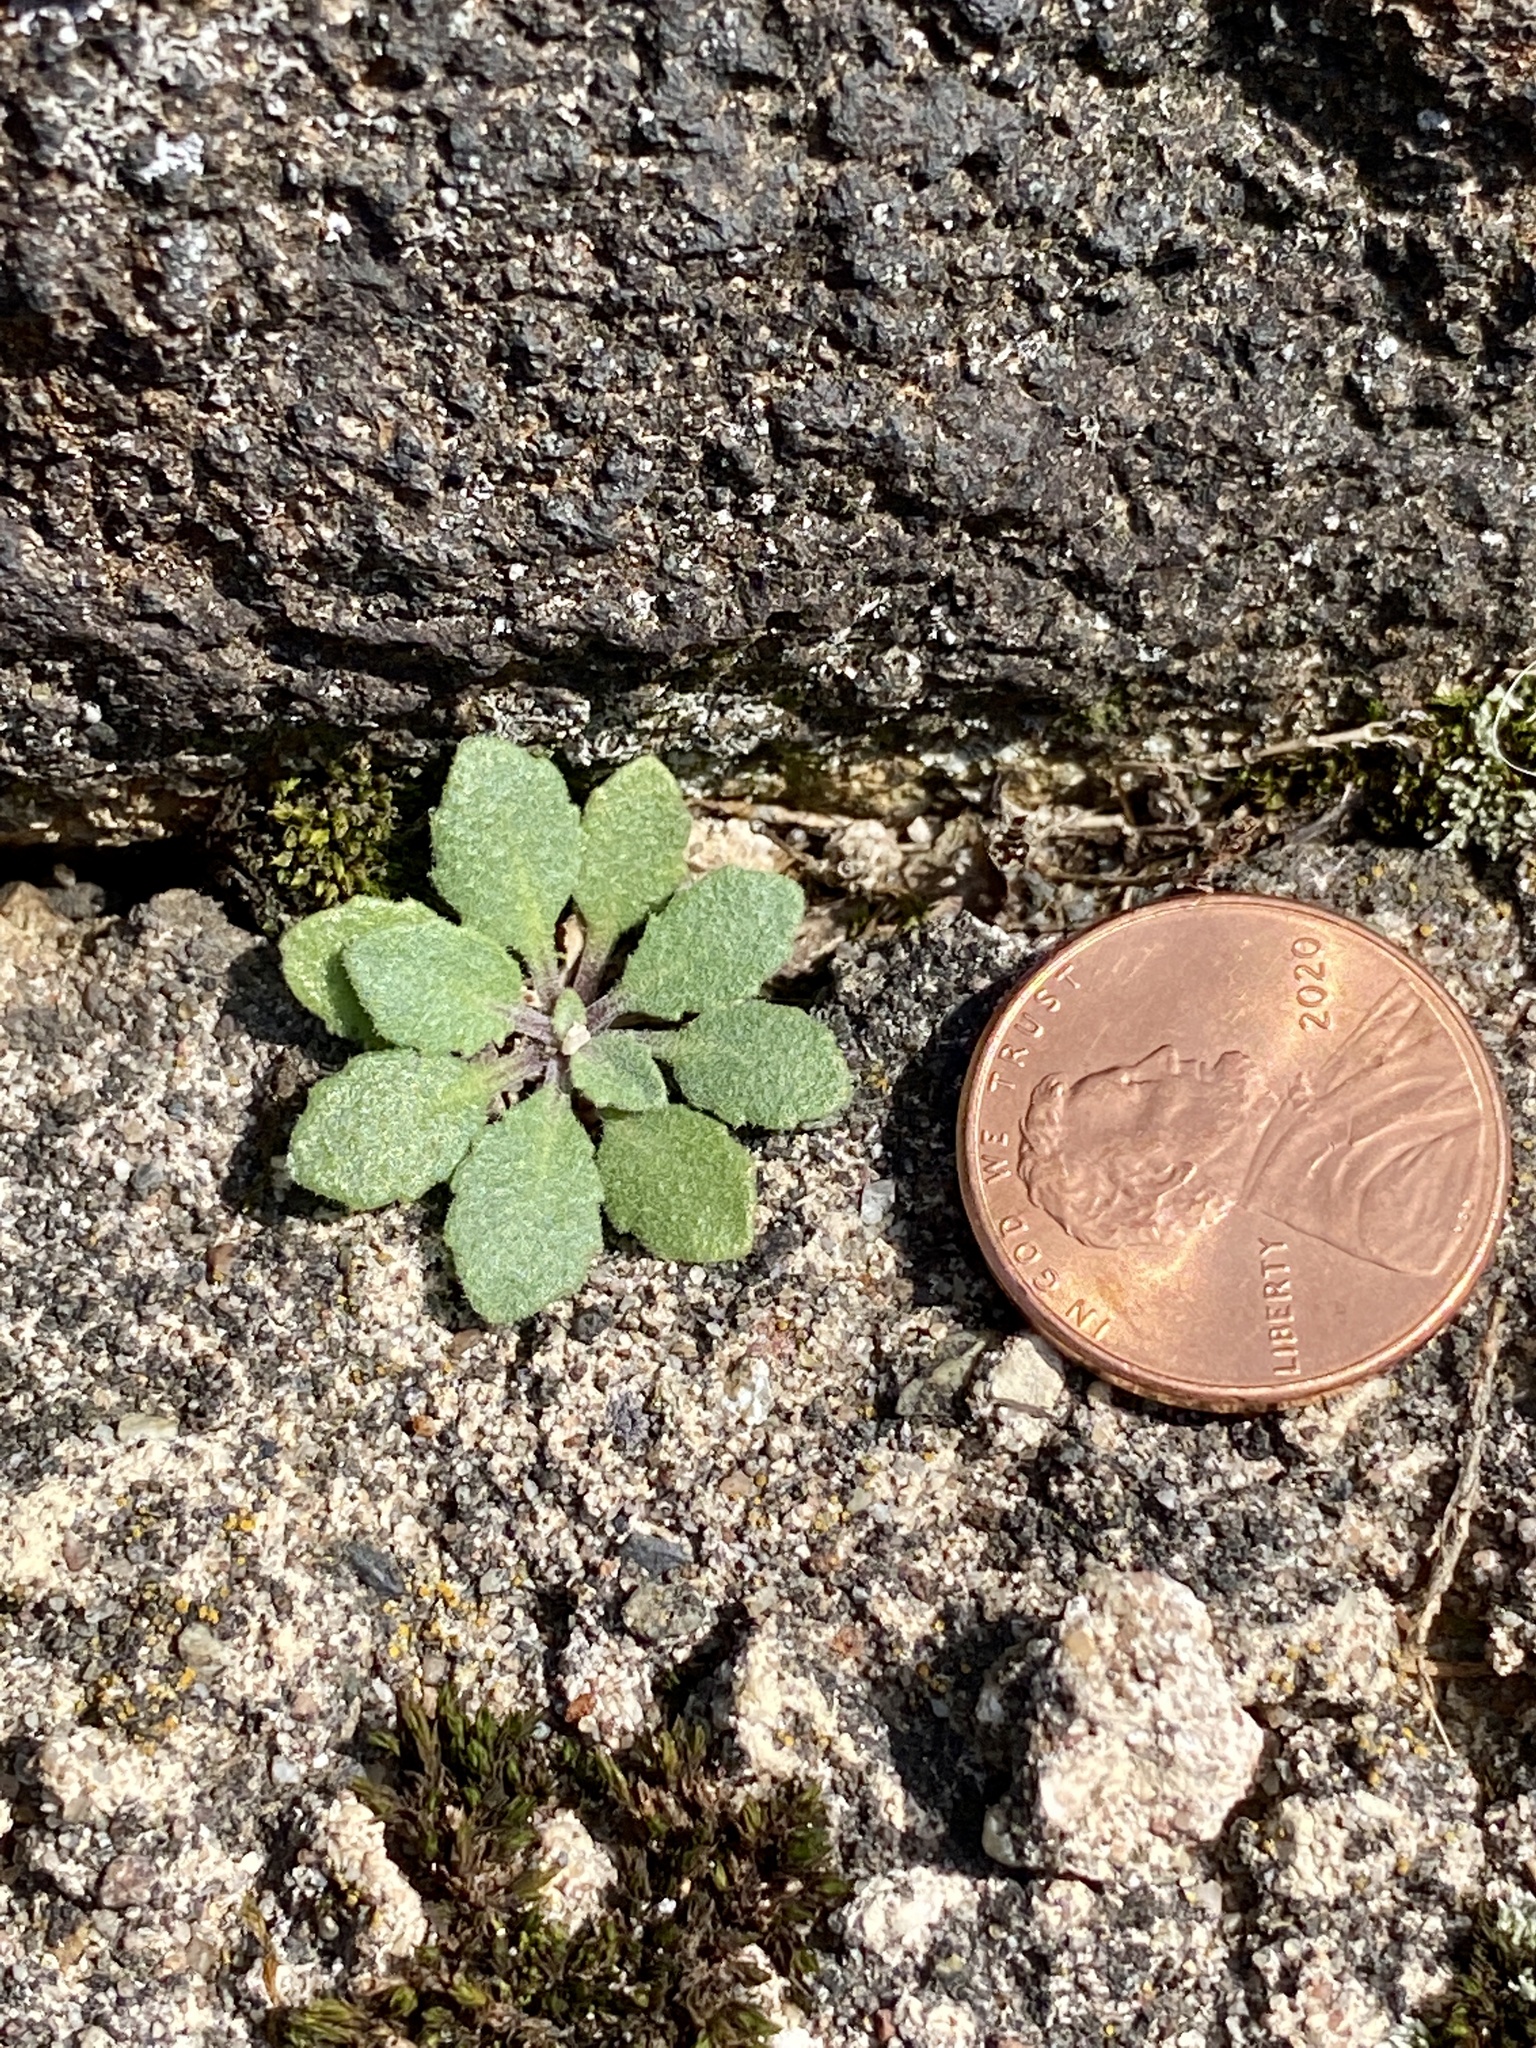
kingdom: Plantae
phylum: Tracheophyta
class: Magnoliopsida
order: Brassicales
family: Brassicaceae
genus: Arabidopsis
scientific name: Arabidopsis lyrata
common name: Lyrate rockcress
